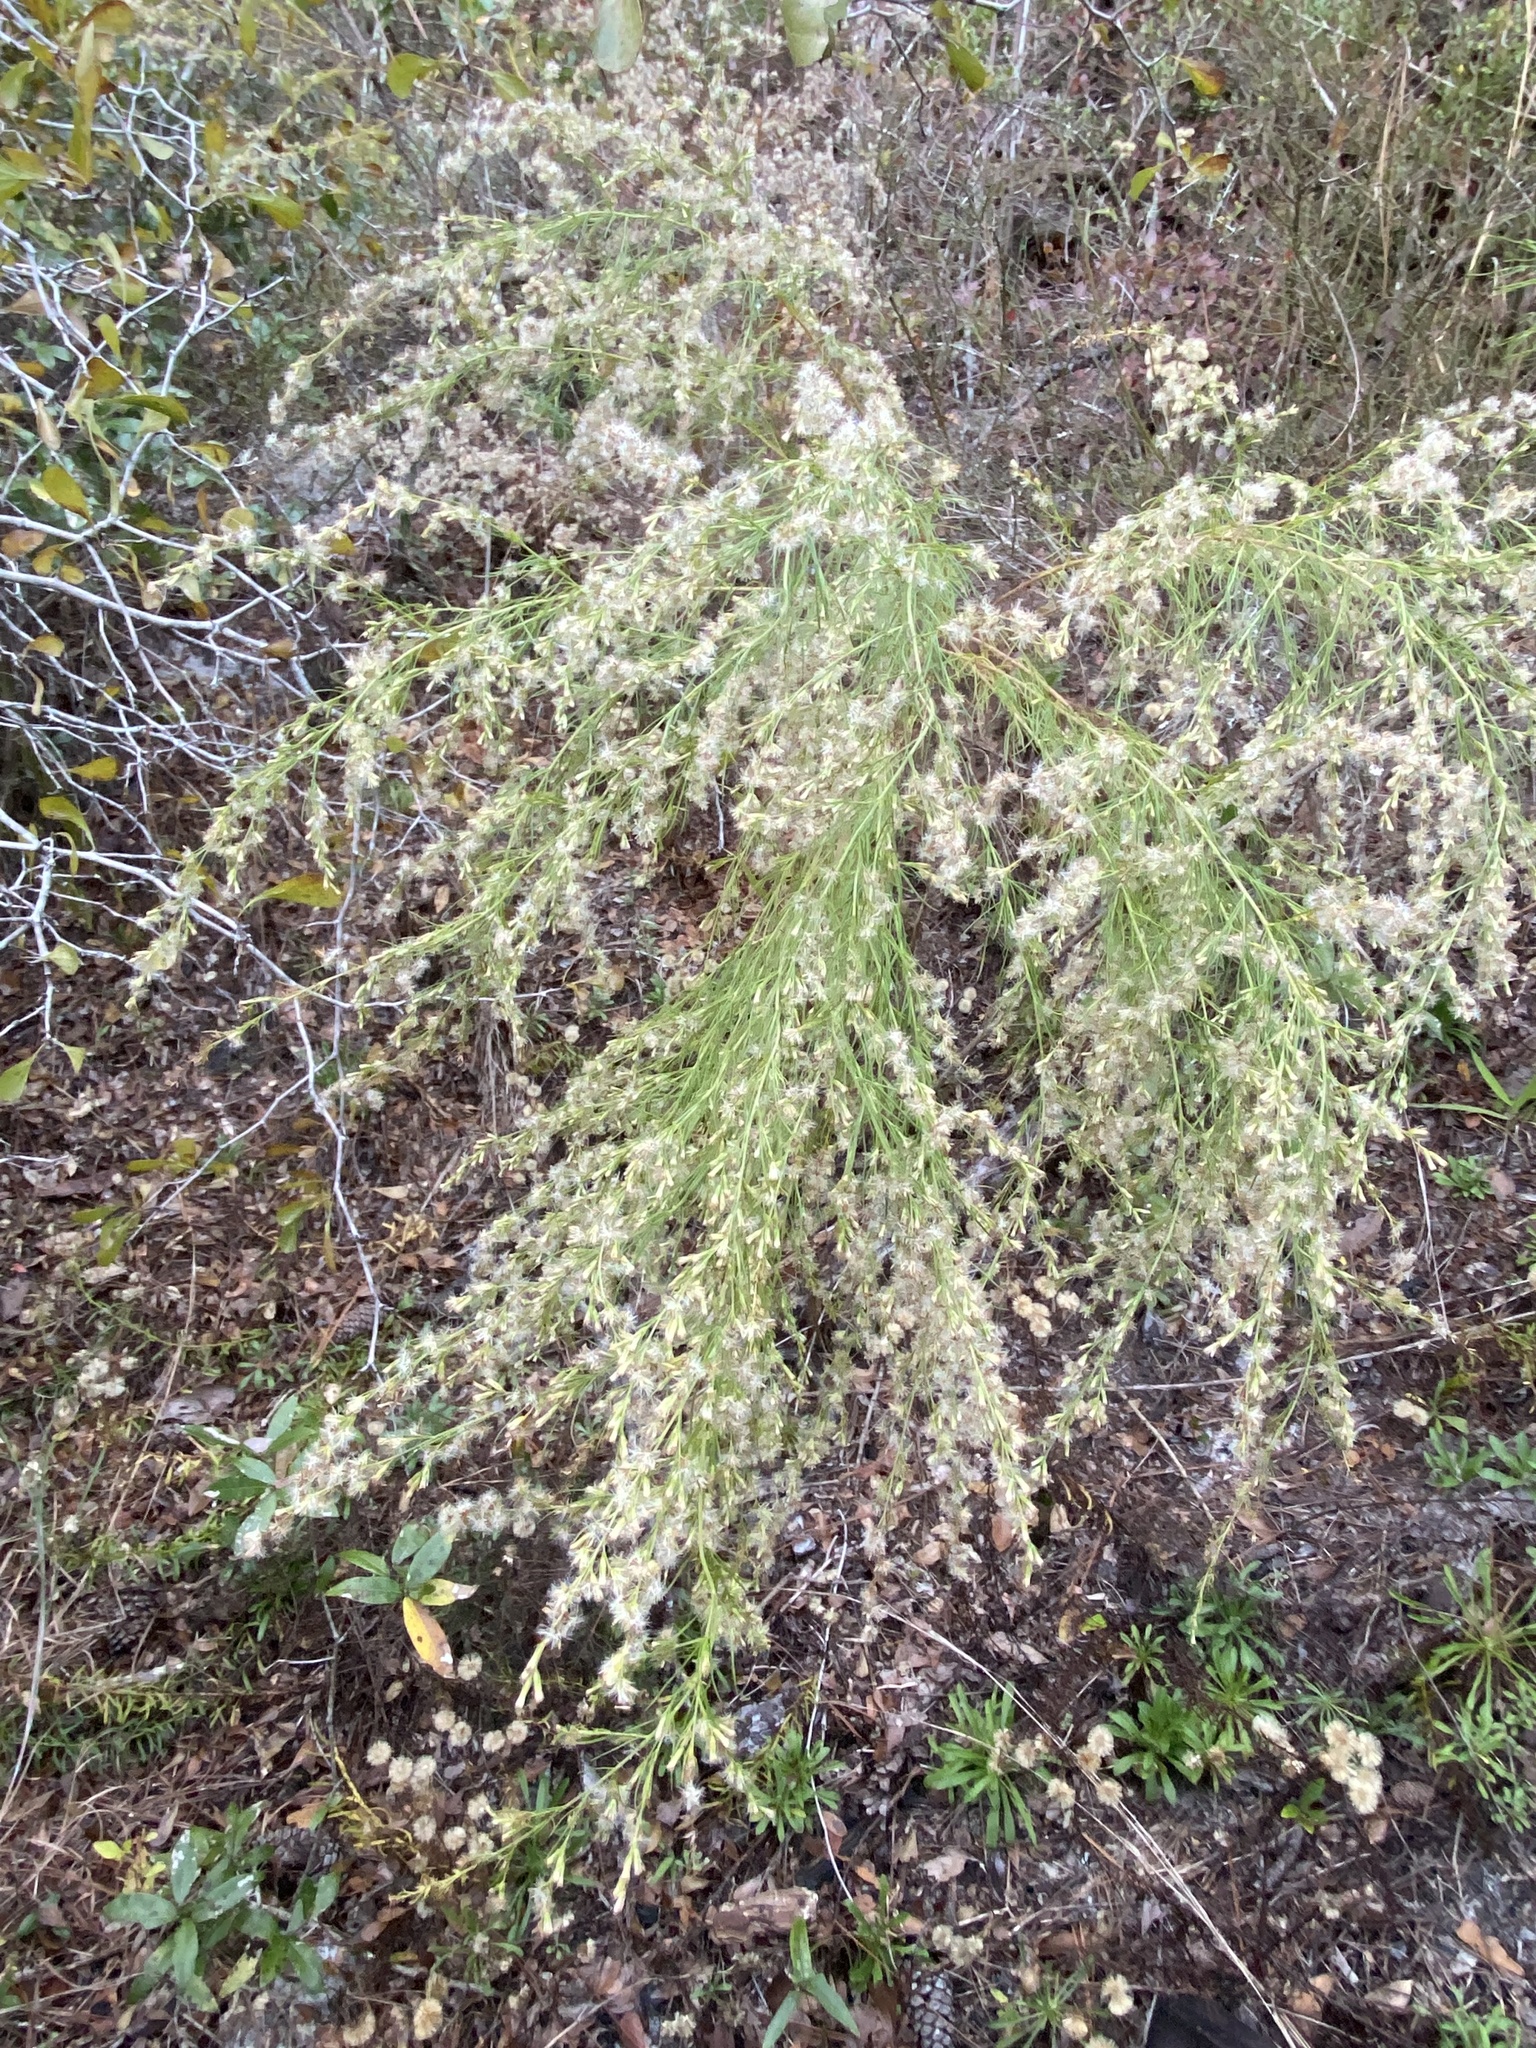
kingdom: Plantae
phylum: Tracheophyta
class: Magnoliopsida
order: Asterales
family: Asteraceae
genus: Eupatorium
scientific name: Eupatorium capillifolium
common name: Dog-fennel
